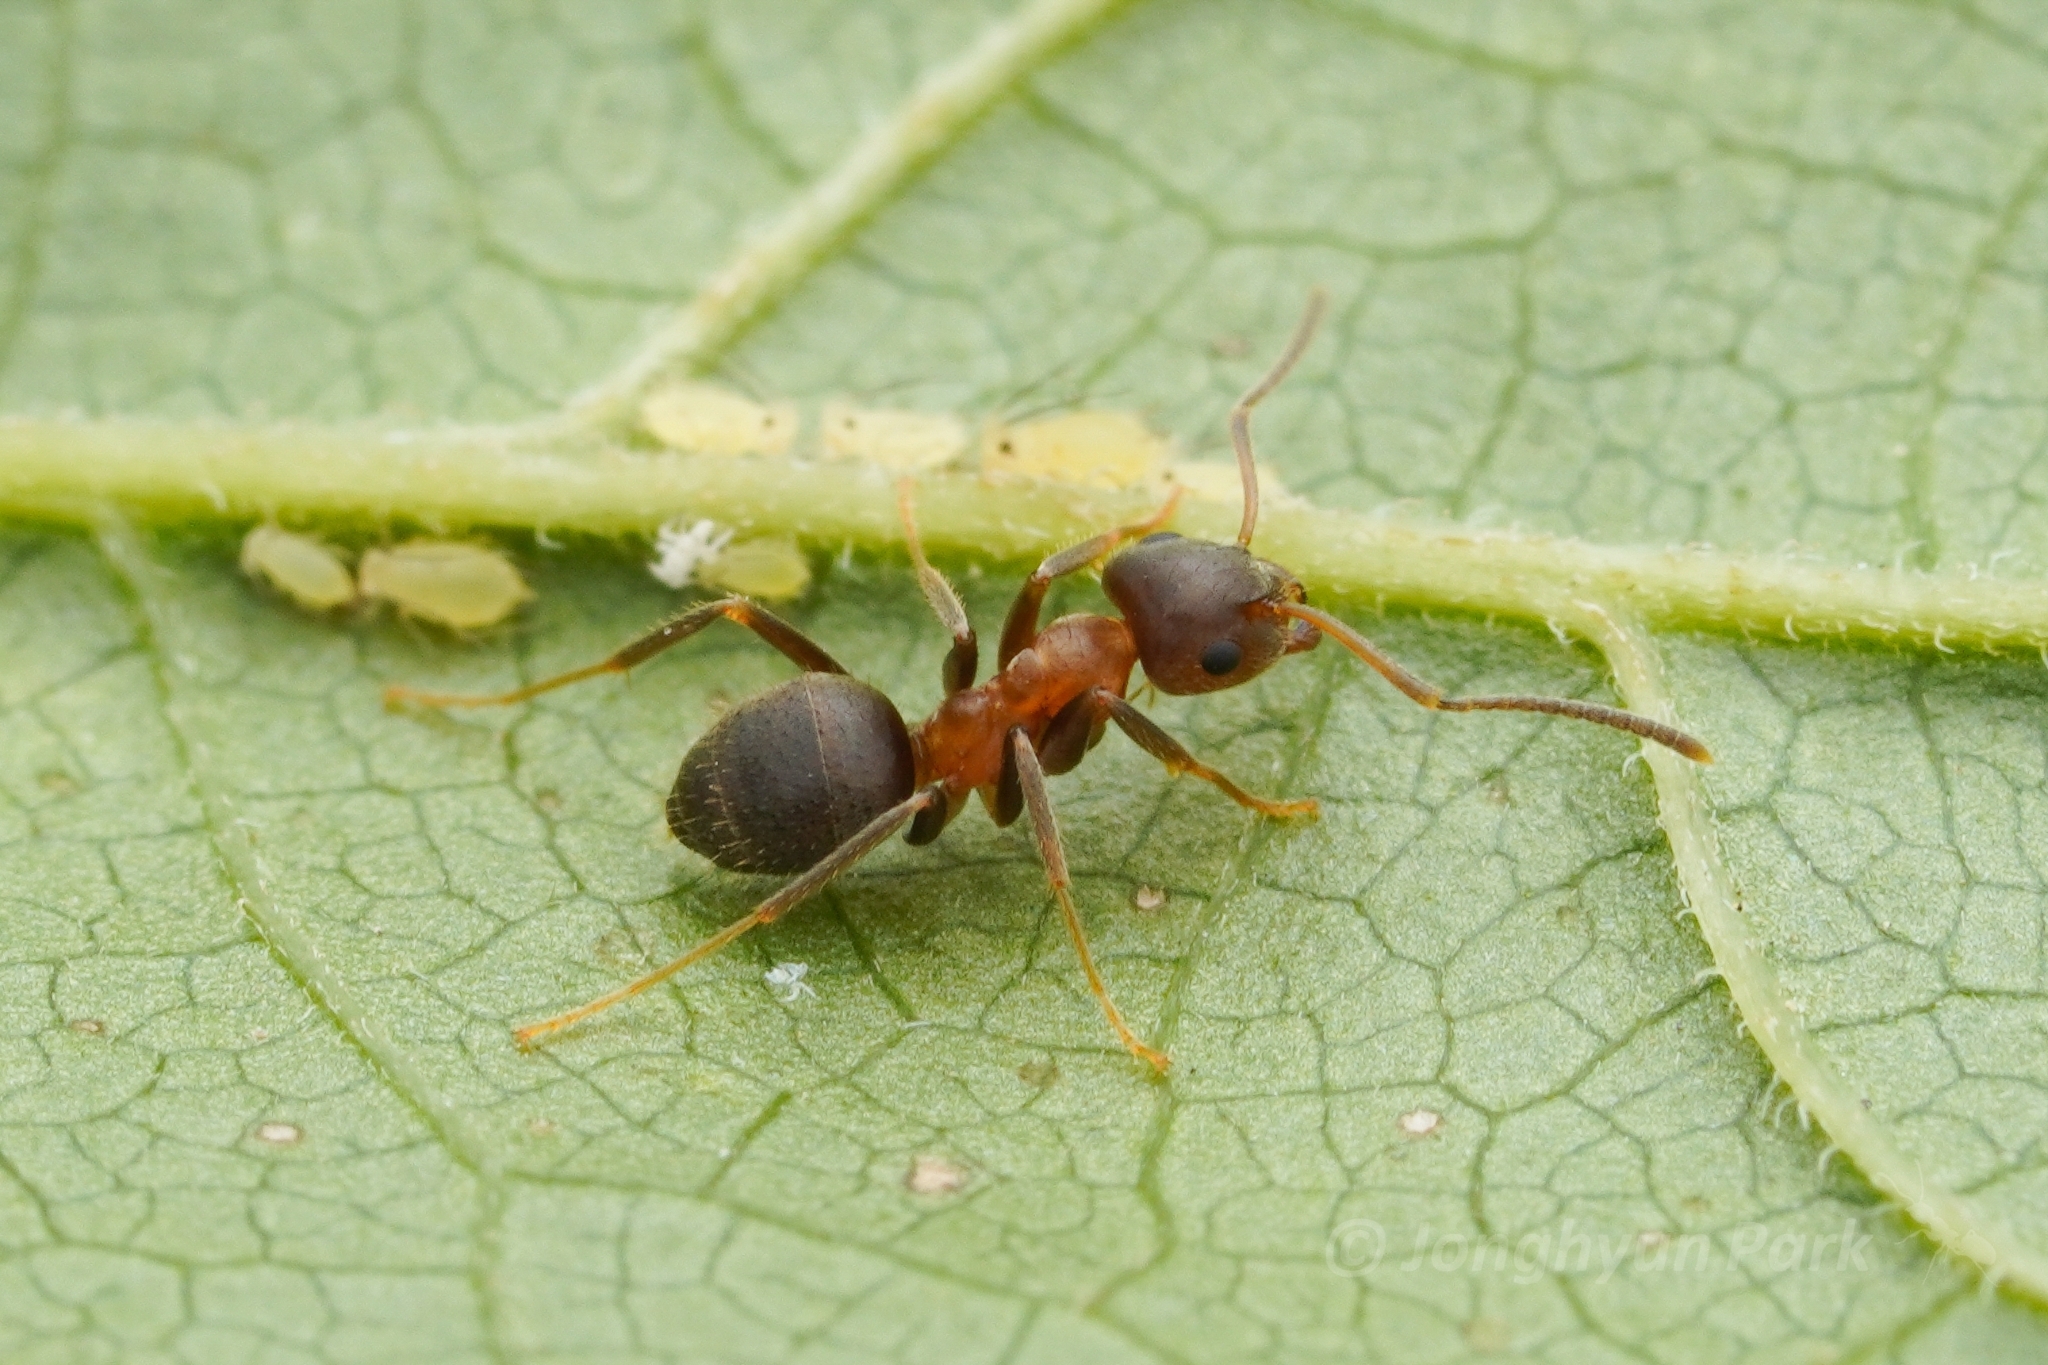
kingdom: Animalia
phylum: Arthropoda
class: Insecta
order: Hymenoptera
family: Formicidae
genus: Lasius
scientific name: Lasius emarginatus
